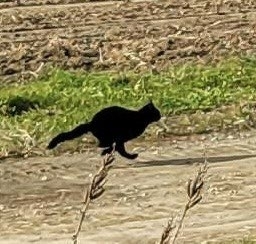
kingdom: Animalia
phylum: Chordata
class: Mammalia
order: Carnivora
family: Felidae
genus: Felis
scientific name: Felis catus
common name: Domestic cat
